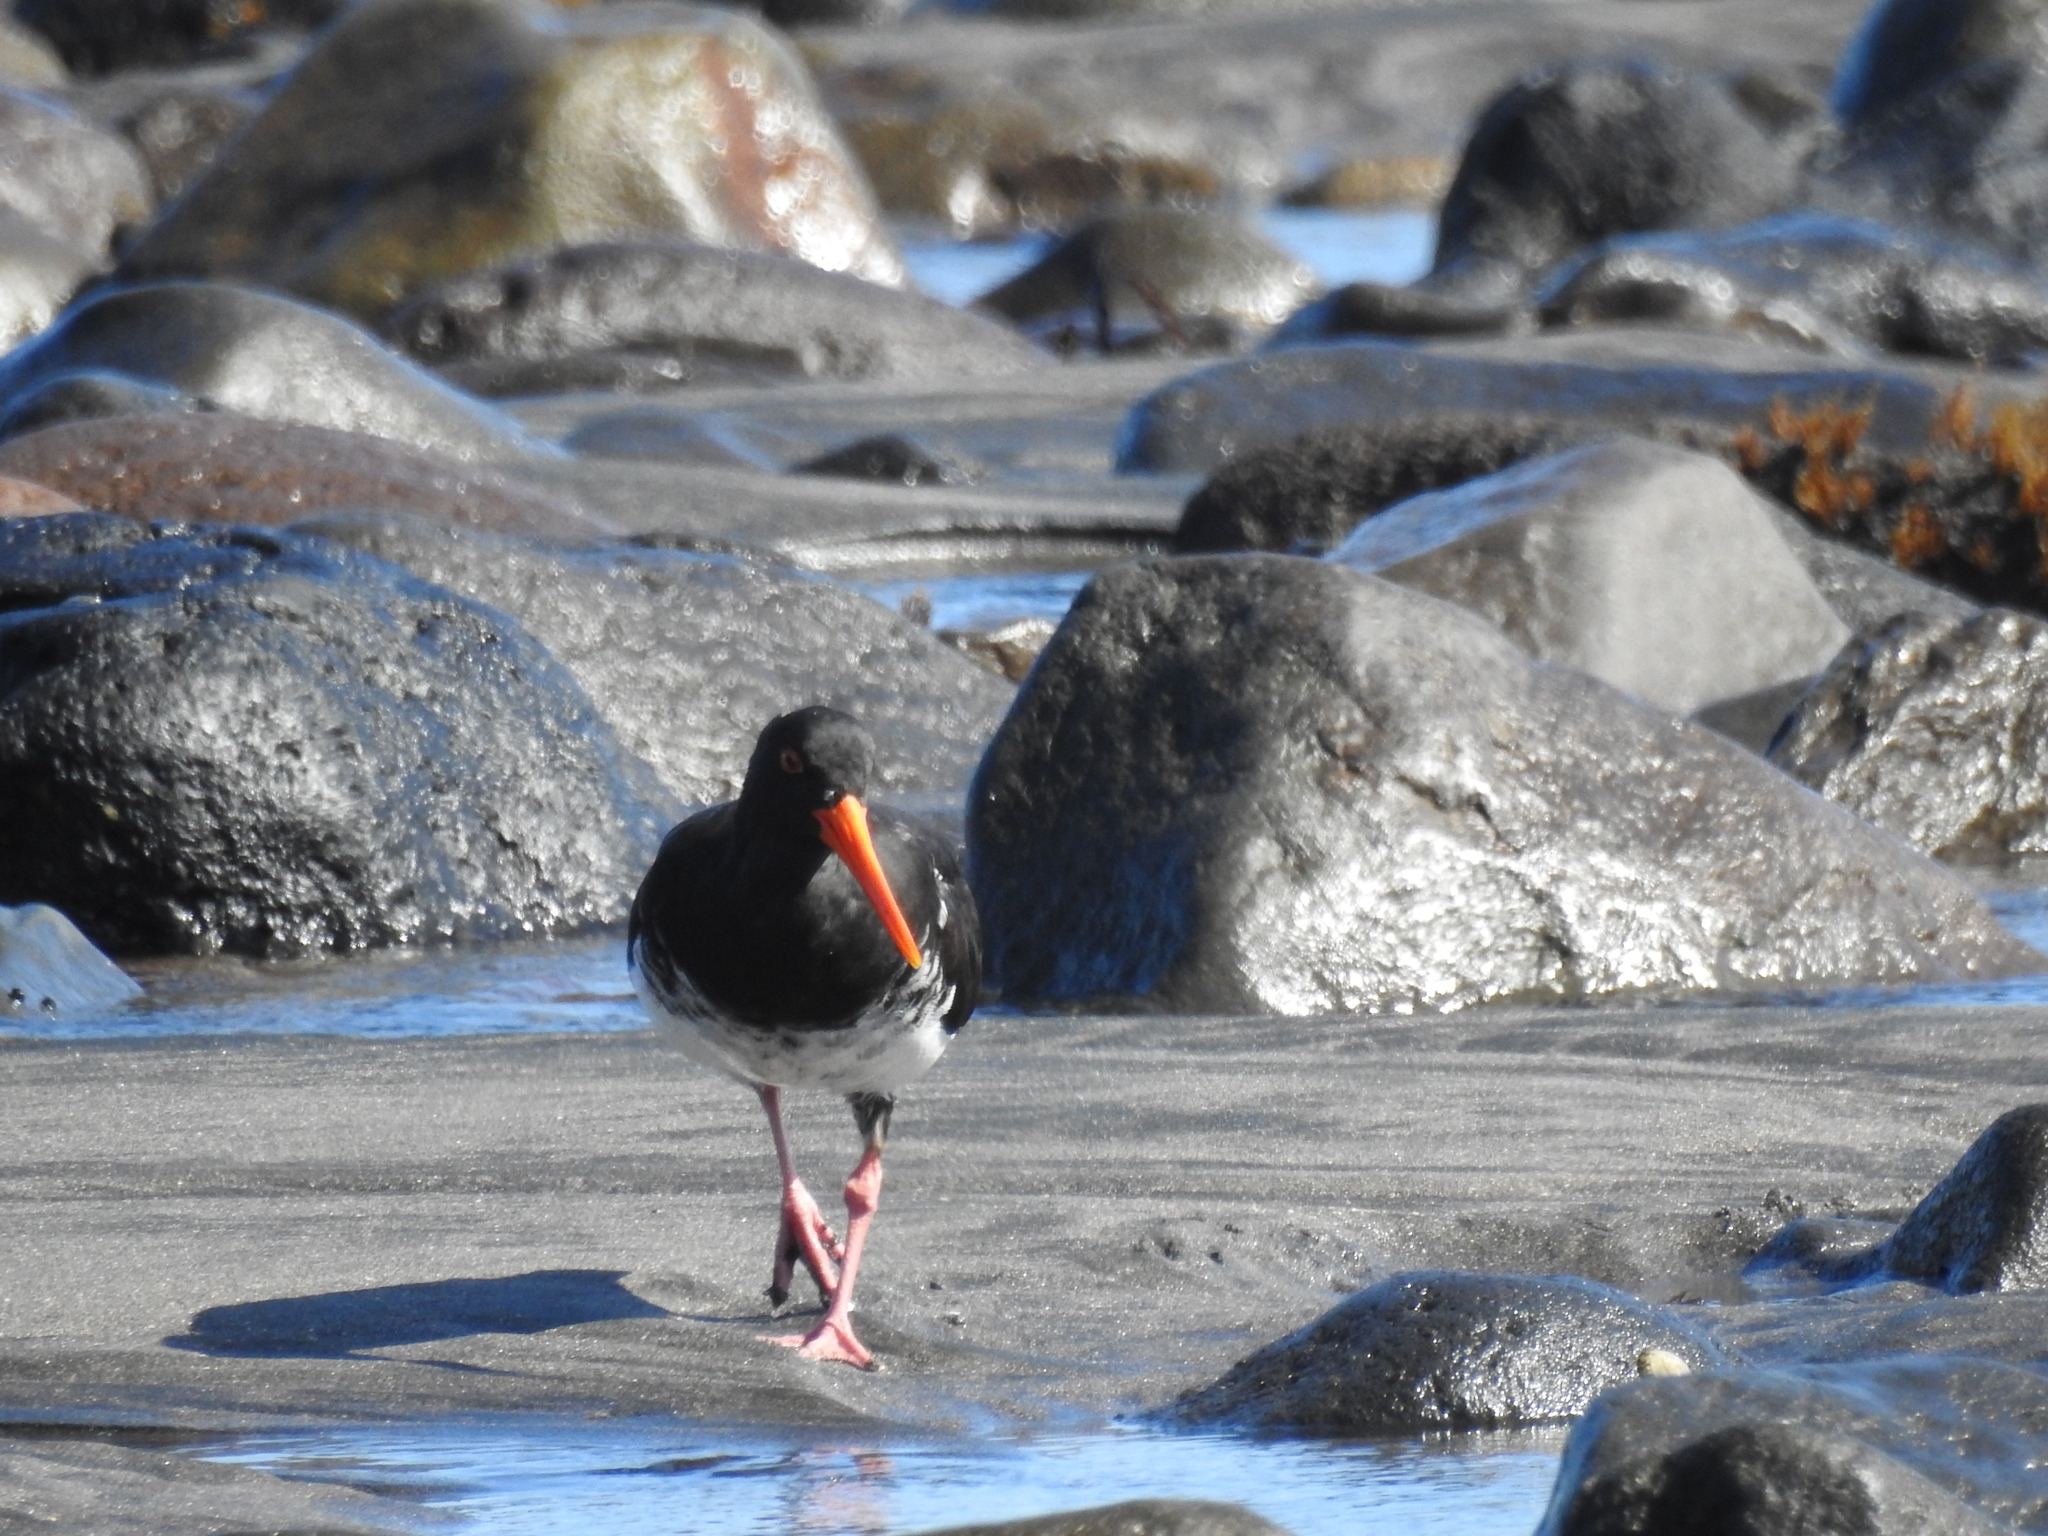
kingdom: Animalia
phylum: Chordata
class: Aves
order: Charadriiformes
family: Haematopodidae
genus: Haematopus
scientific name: Haematopus unicolor
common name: Variable oystercatcher
